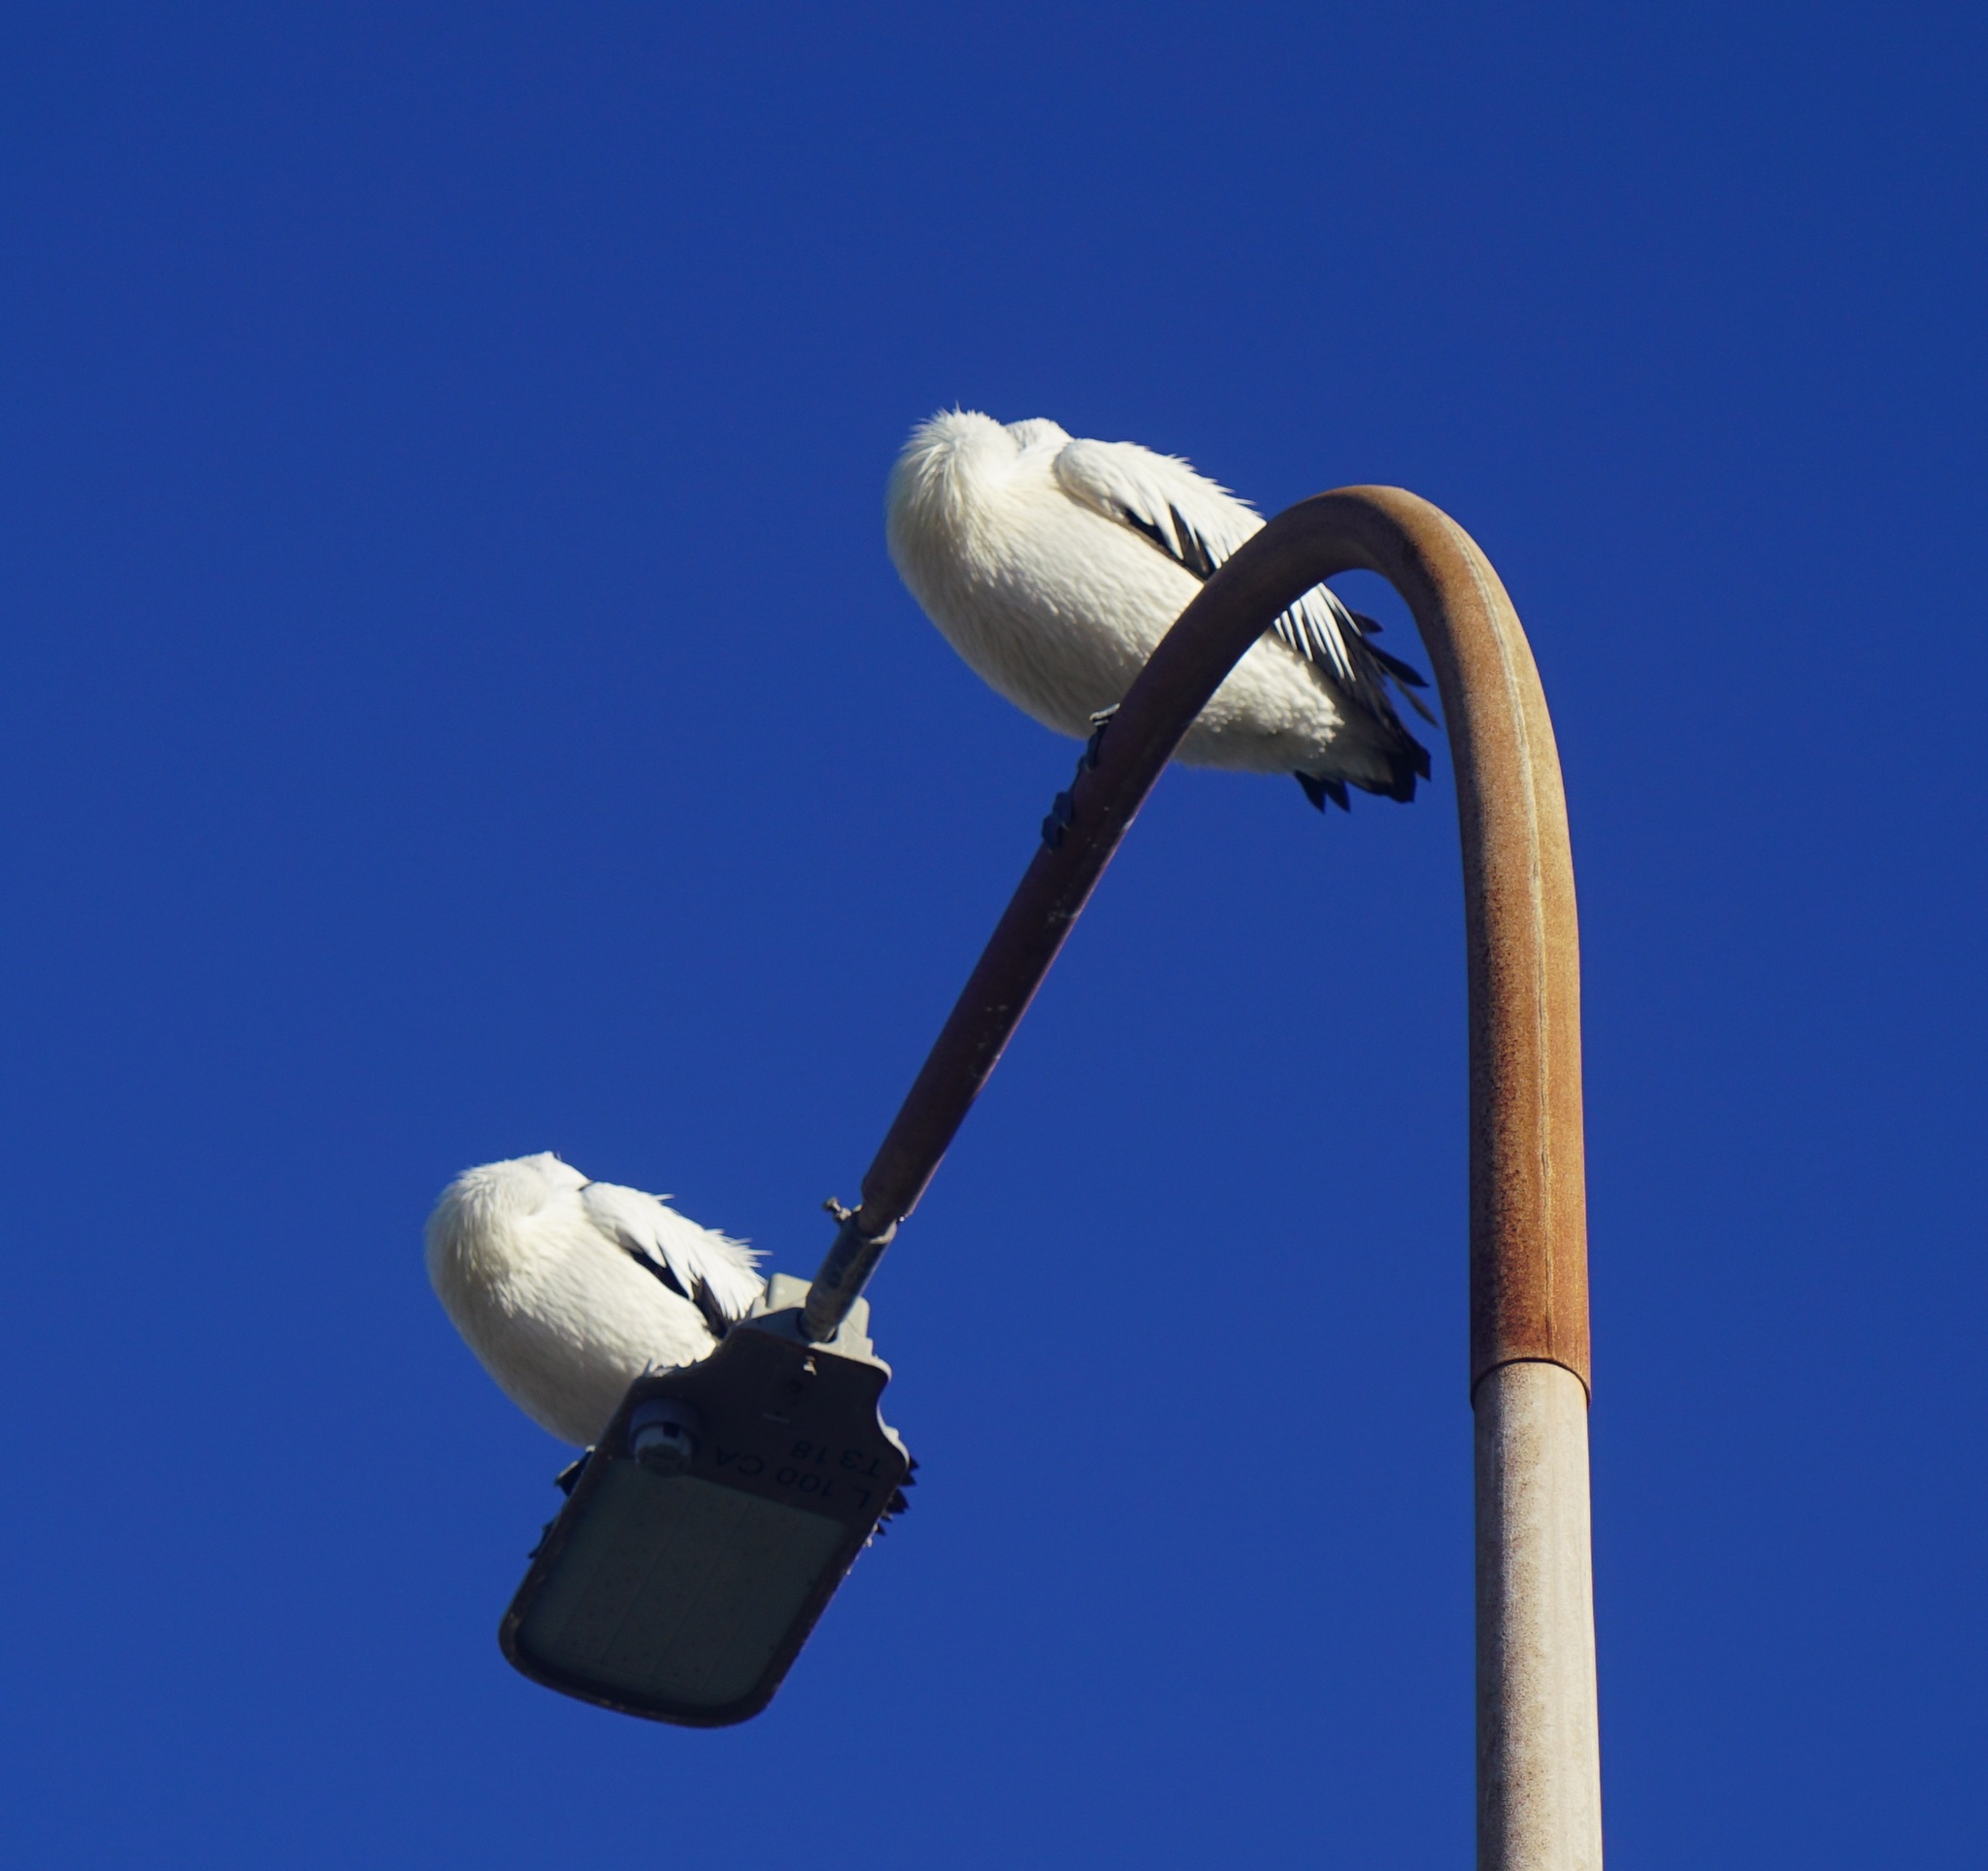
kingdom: Animalia
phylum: Chordata
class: Aves
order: Pelecaniformes
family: Pelecanidae
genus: Pelecanus
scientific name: Pelecanus conspicillatus
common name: Australian pelican
